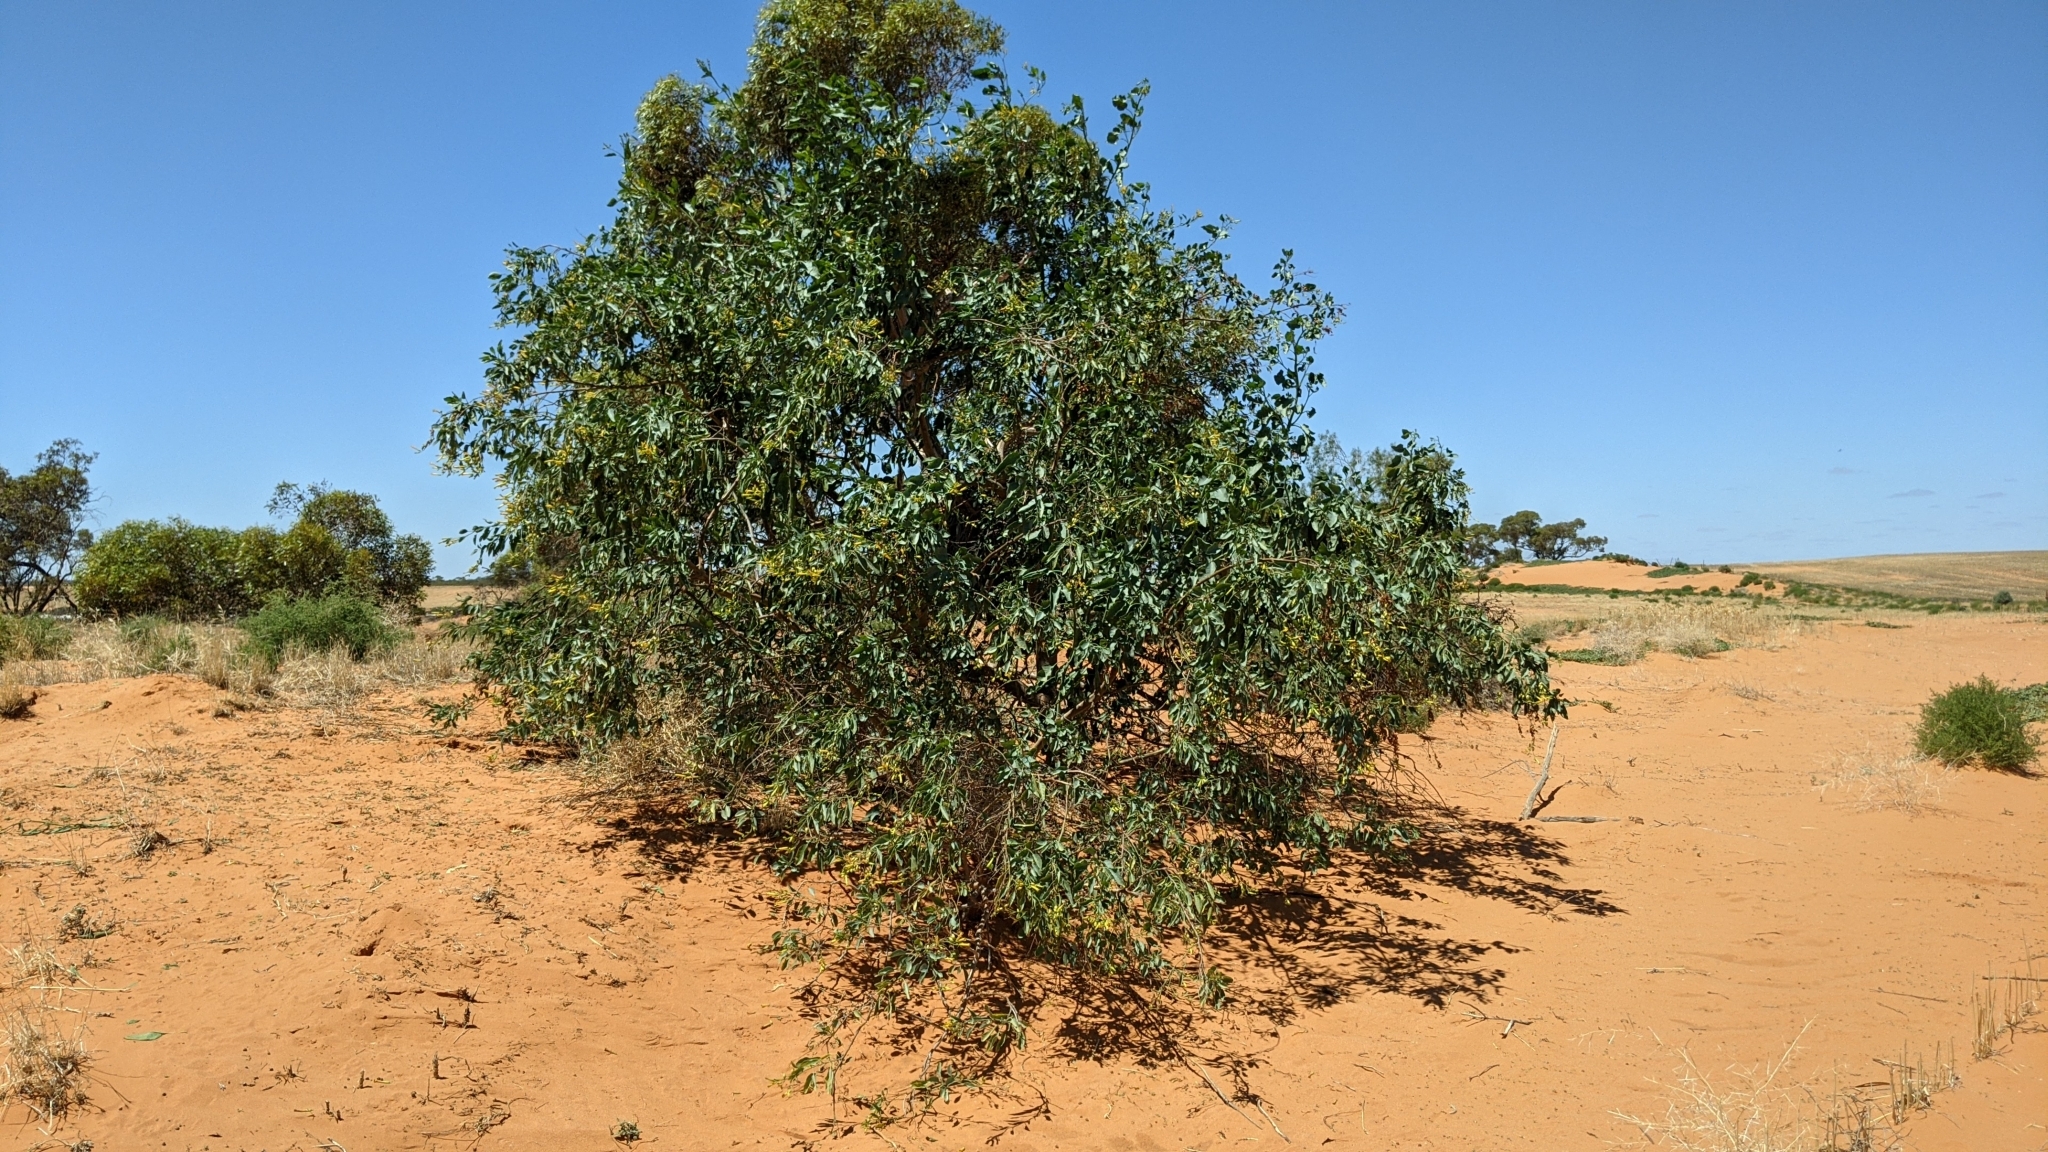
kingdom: Plantae
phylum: Tracheophyta
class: Magnoliopsida
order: Solanales
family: Solanaceae
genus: Nicotiana
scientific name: Nicotiana glauca
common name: Tree tobacco
